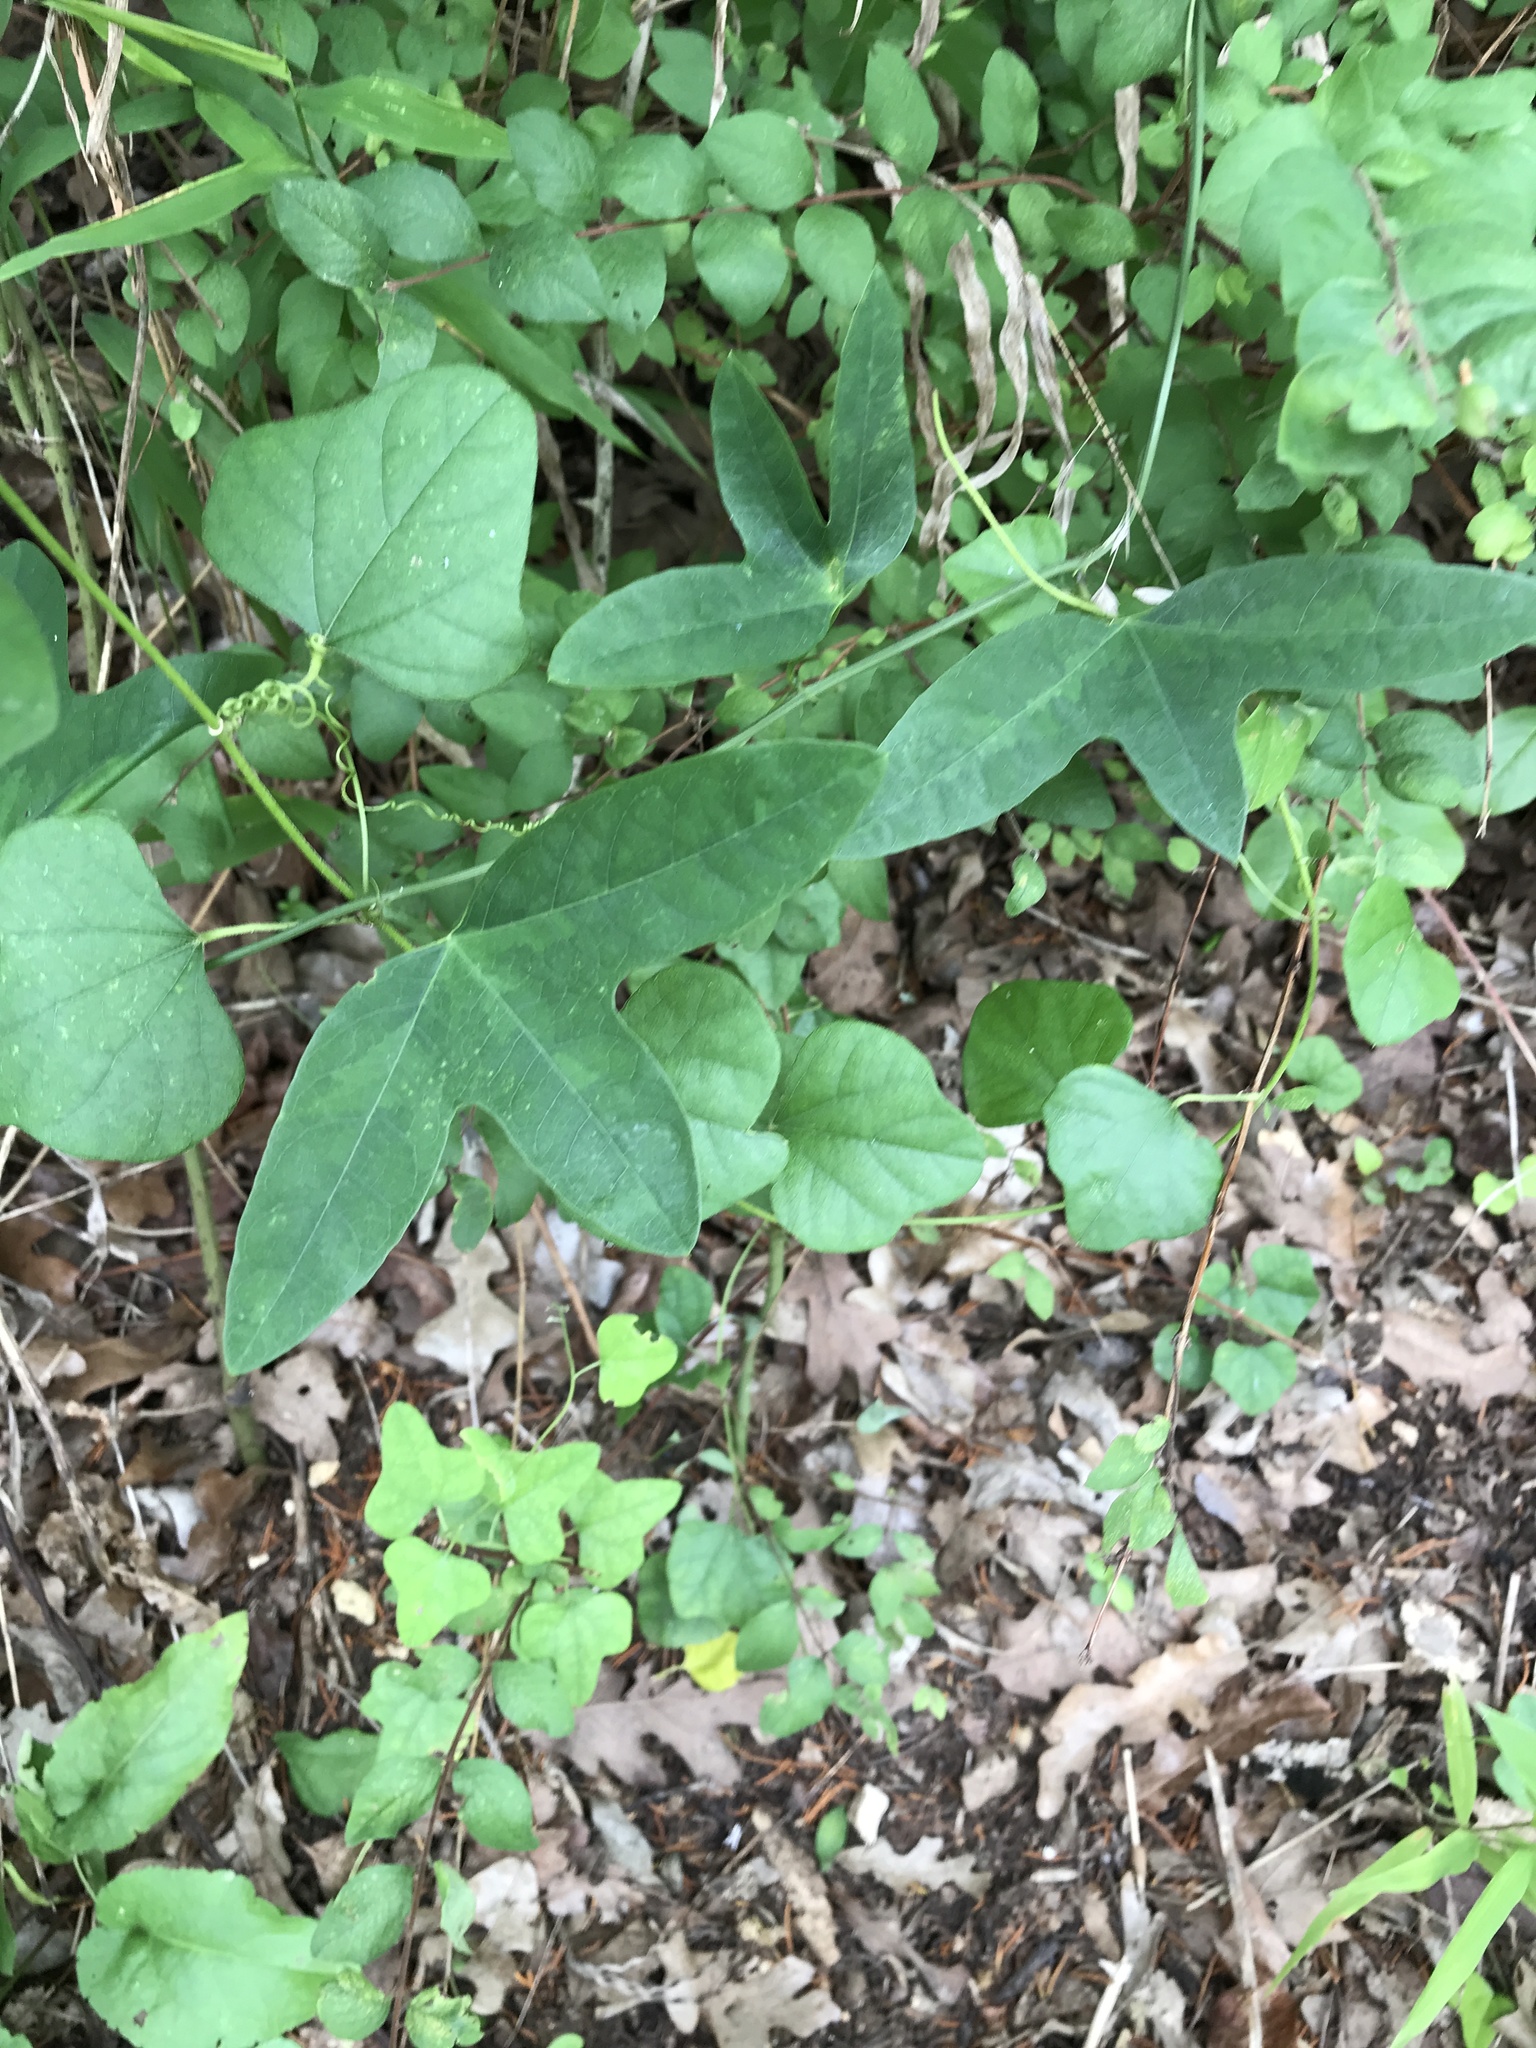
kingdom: Plantae
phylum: Tracheophyta
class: Magnoliopsida
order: Malpighiales
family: Passifloraceae
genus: Passiflora
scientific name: Passiflora lutea
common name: Yellow passionflower
